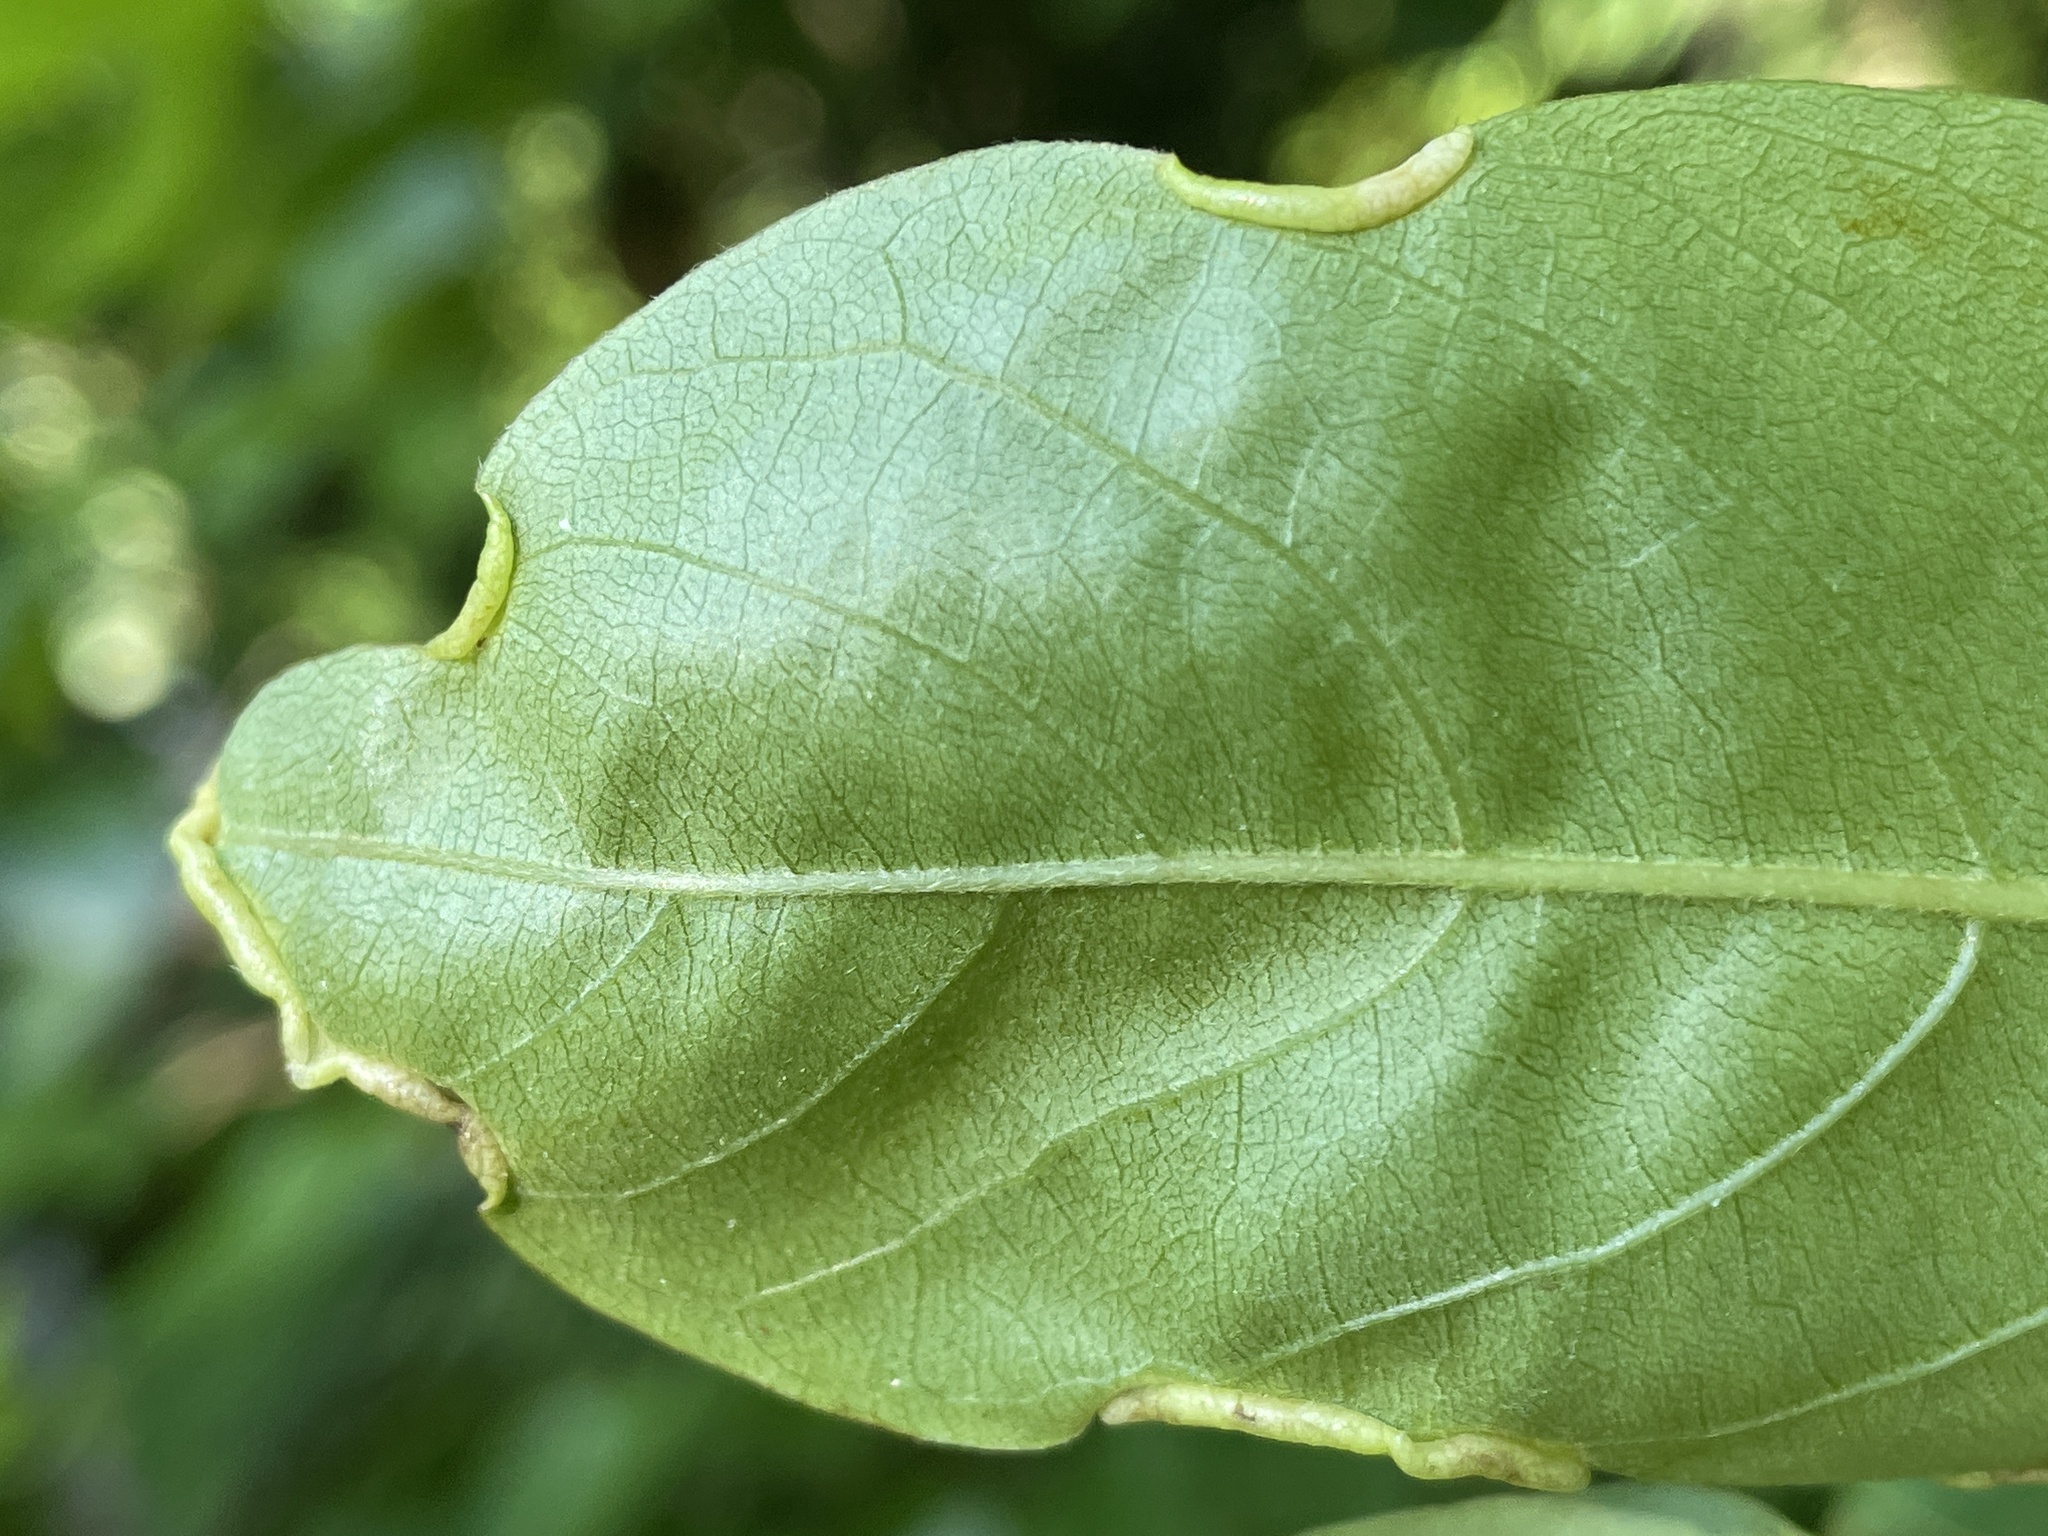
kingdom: Animalia
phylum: Arthropoda
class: Insecta
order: Hemiptera
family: Phylloxeridae
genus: Phylloxerina
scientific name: Phylloxerina nyssae
